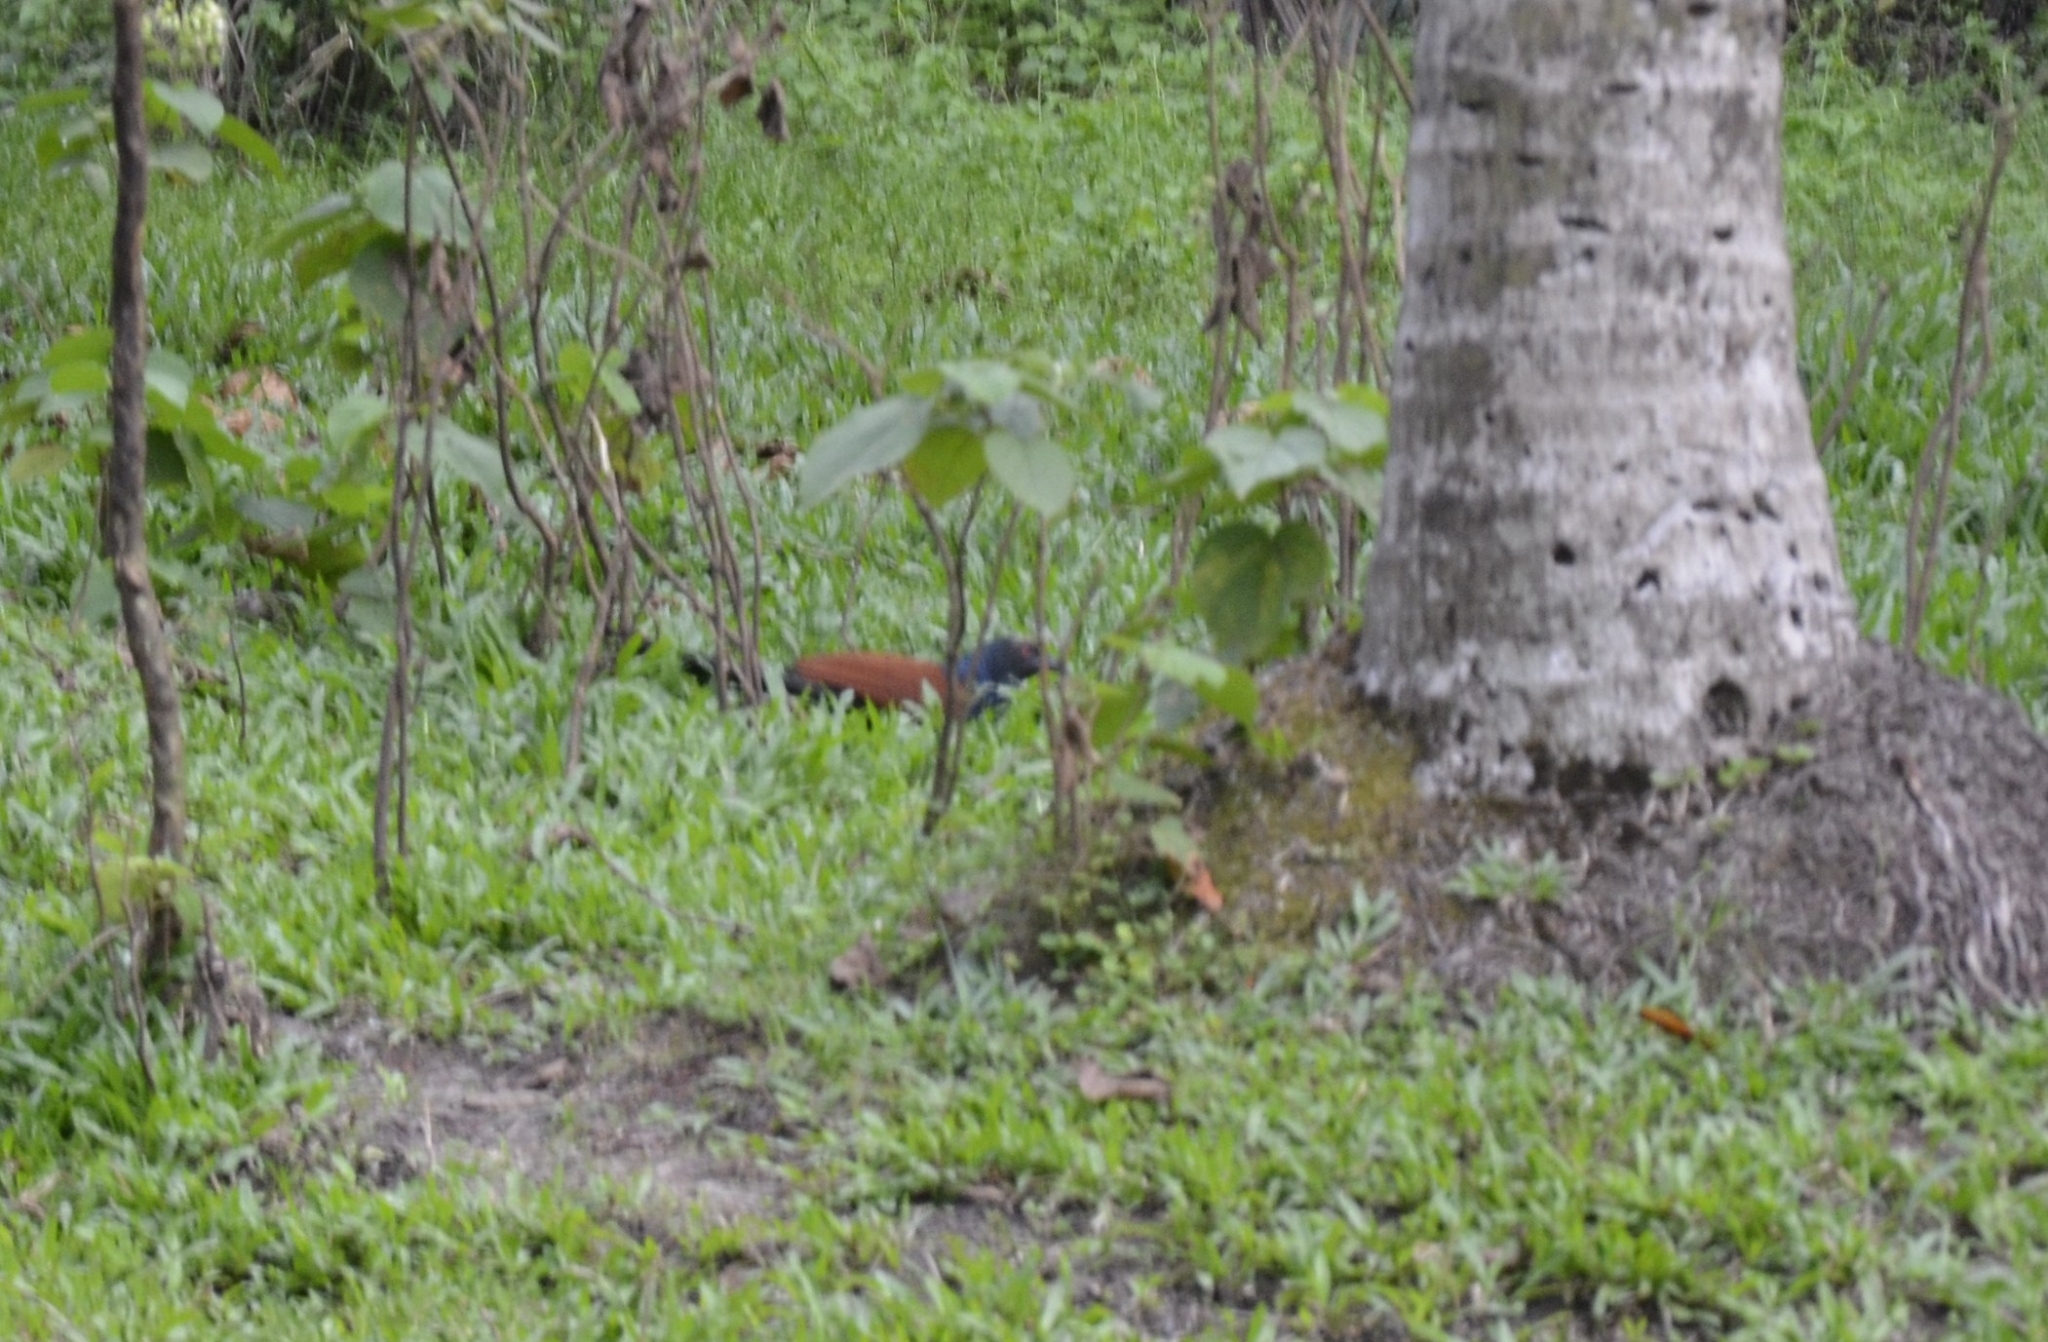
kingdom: Animalia
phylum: Chordata
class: Aves
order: Cuculiformes
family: Cuculidae
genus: Centropus
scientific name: Centropus sinensis
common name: Greater coucal
